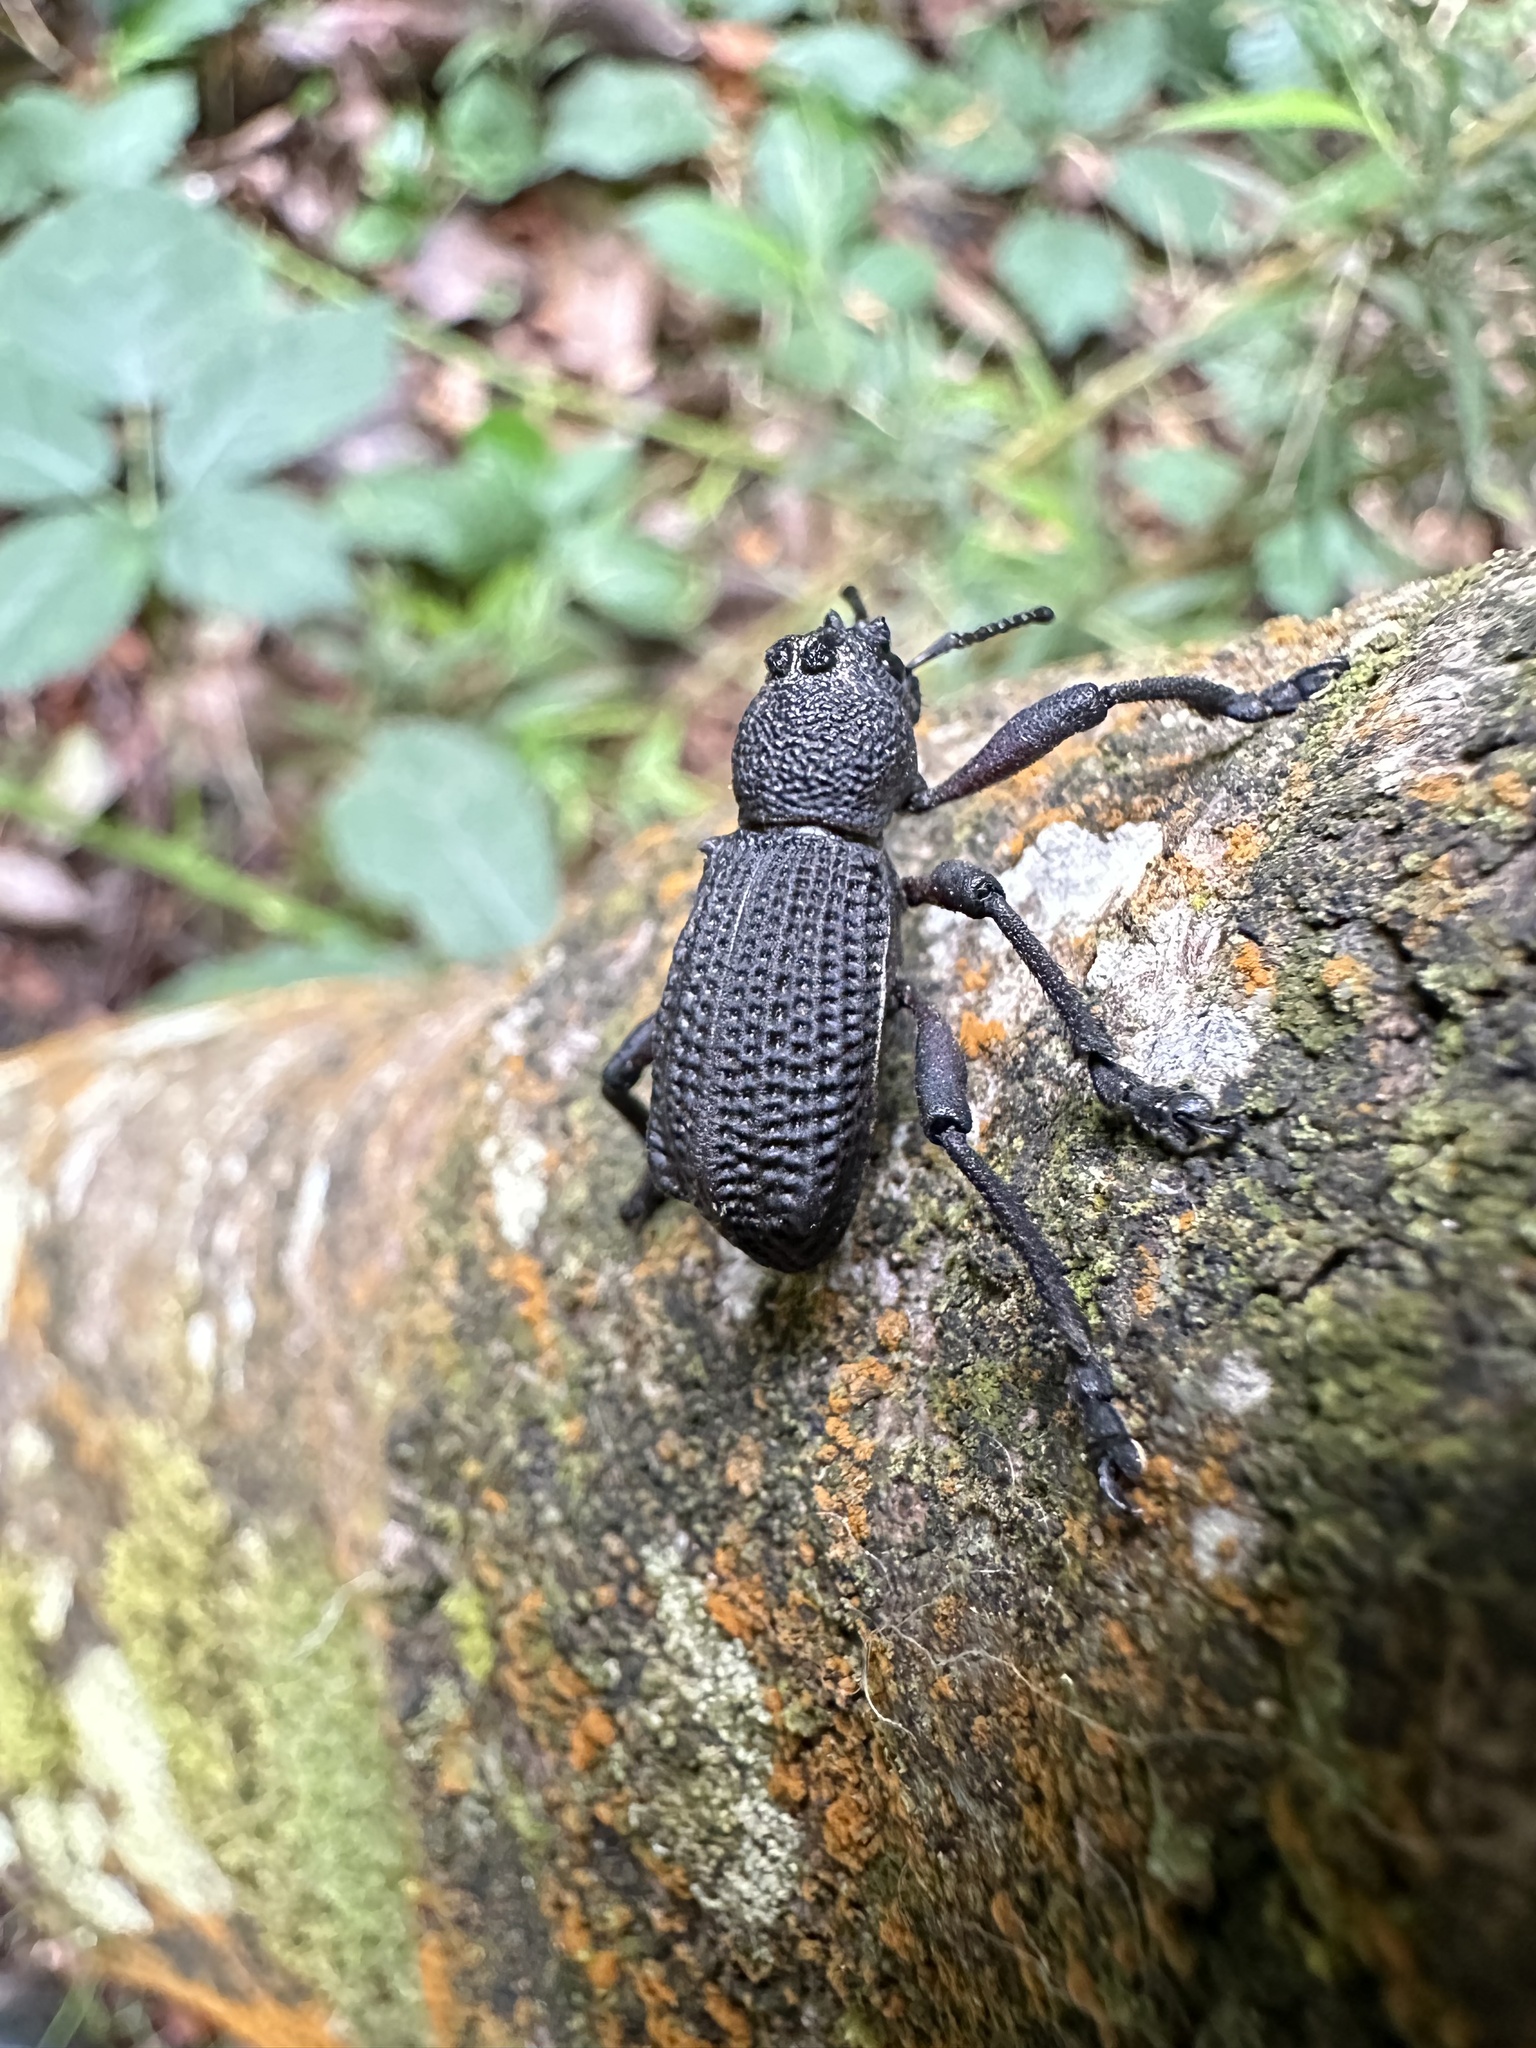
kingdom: Animalia
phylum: Arthropoda
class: Insecta
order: Coleoptera
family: Curculionidae
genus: Aegorhinus
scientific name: Aegorhinus
